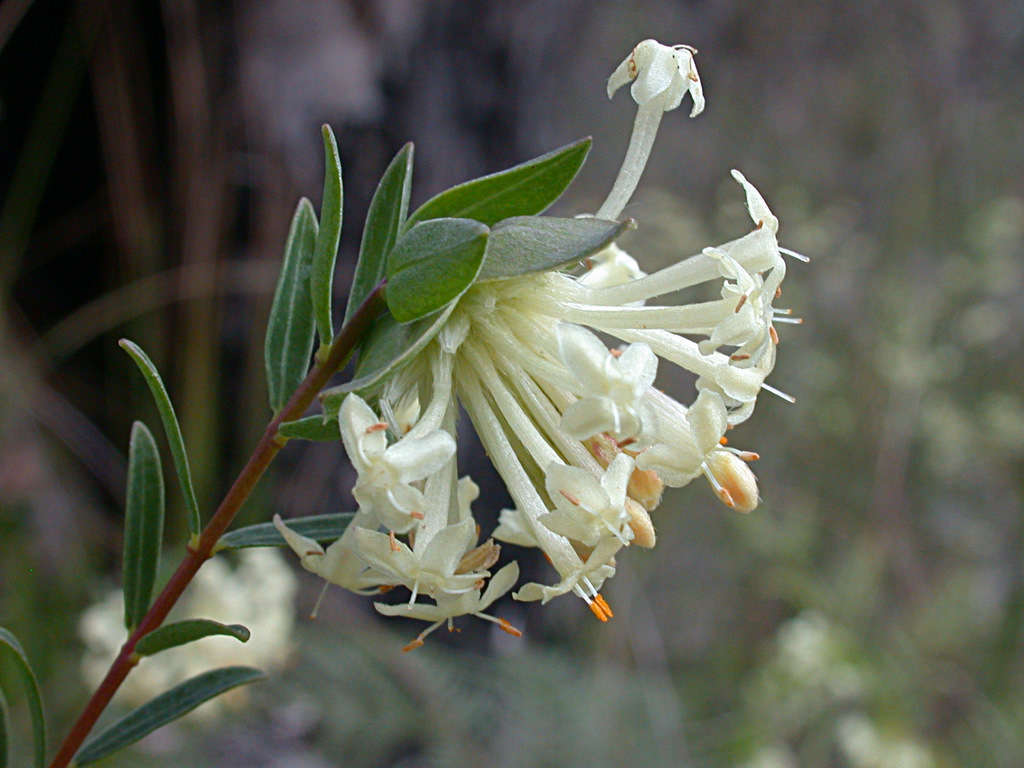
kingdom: Plantae
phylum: Tracheophyta
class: Magnoliopsida
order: Malvales
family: Thymelaeaceae
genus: Pimelea
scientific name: Pimelea linifolia
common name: Queen-of-the-bush
